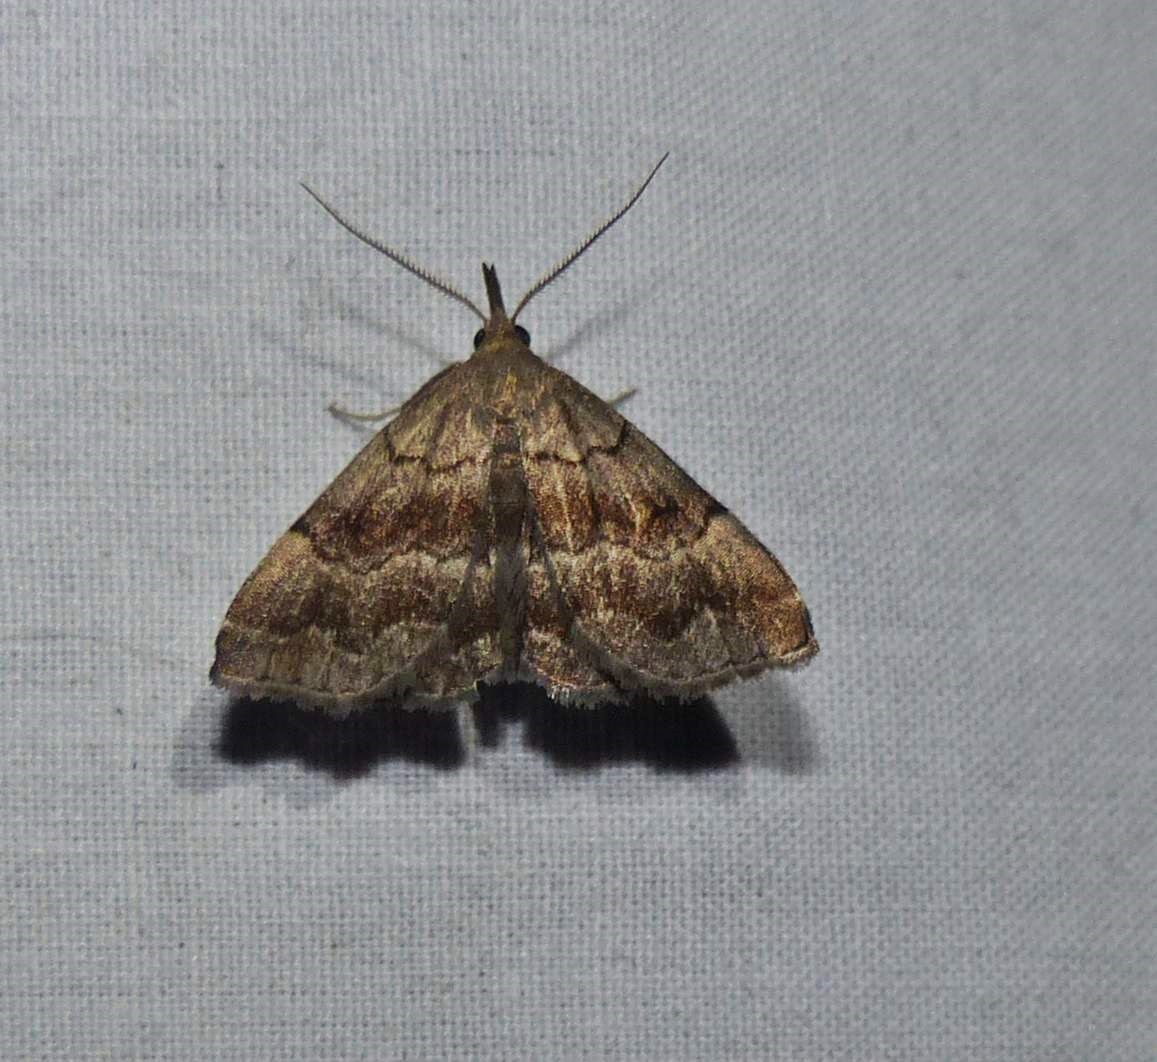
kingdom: Animalia
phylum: Arthropoda
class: Insecta
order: Lepidoptera
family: Erebidae
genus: Phalaenostola
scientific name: Phalaenostola larentioides
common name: Black-banded owlet
